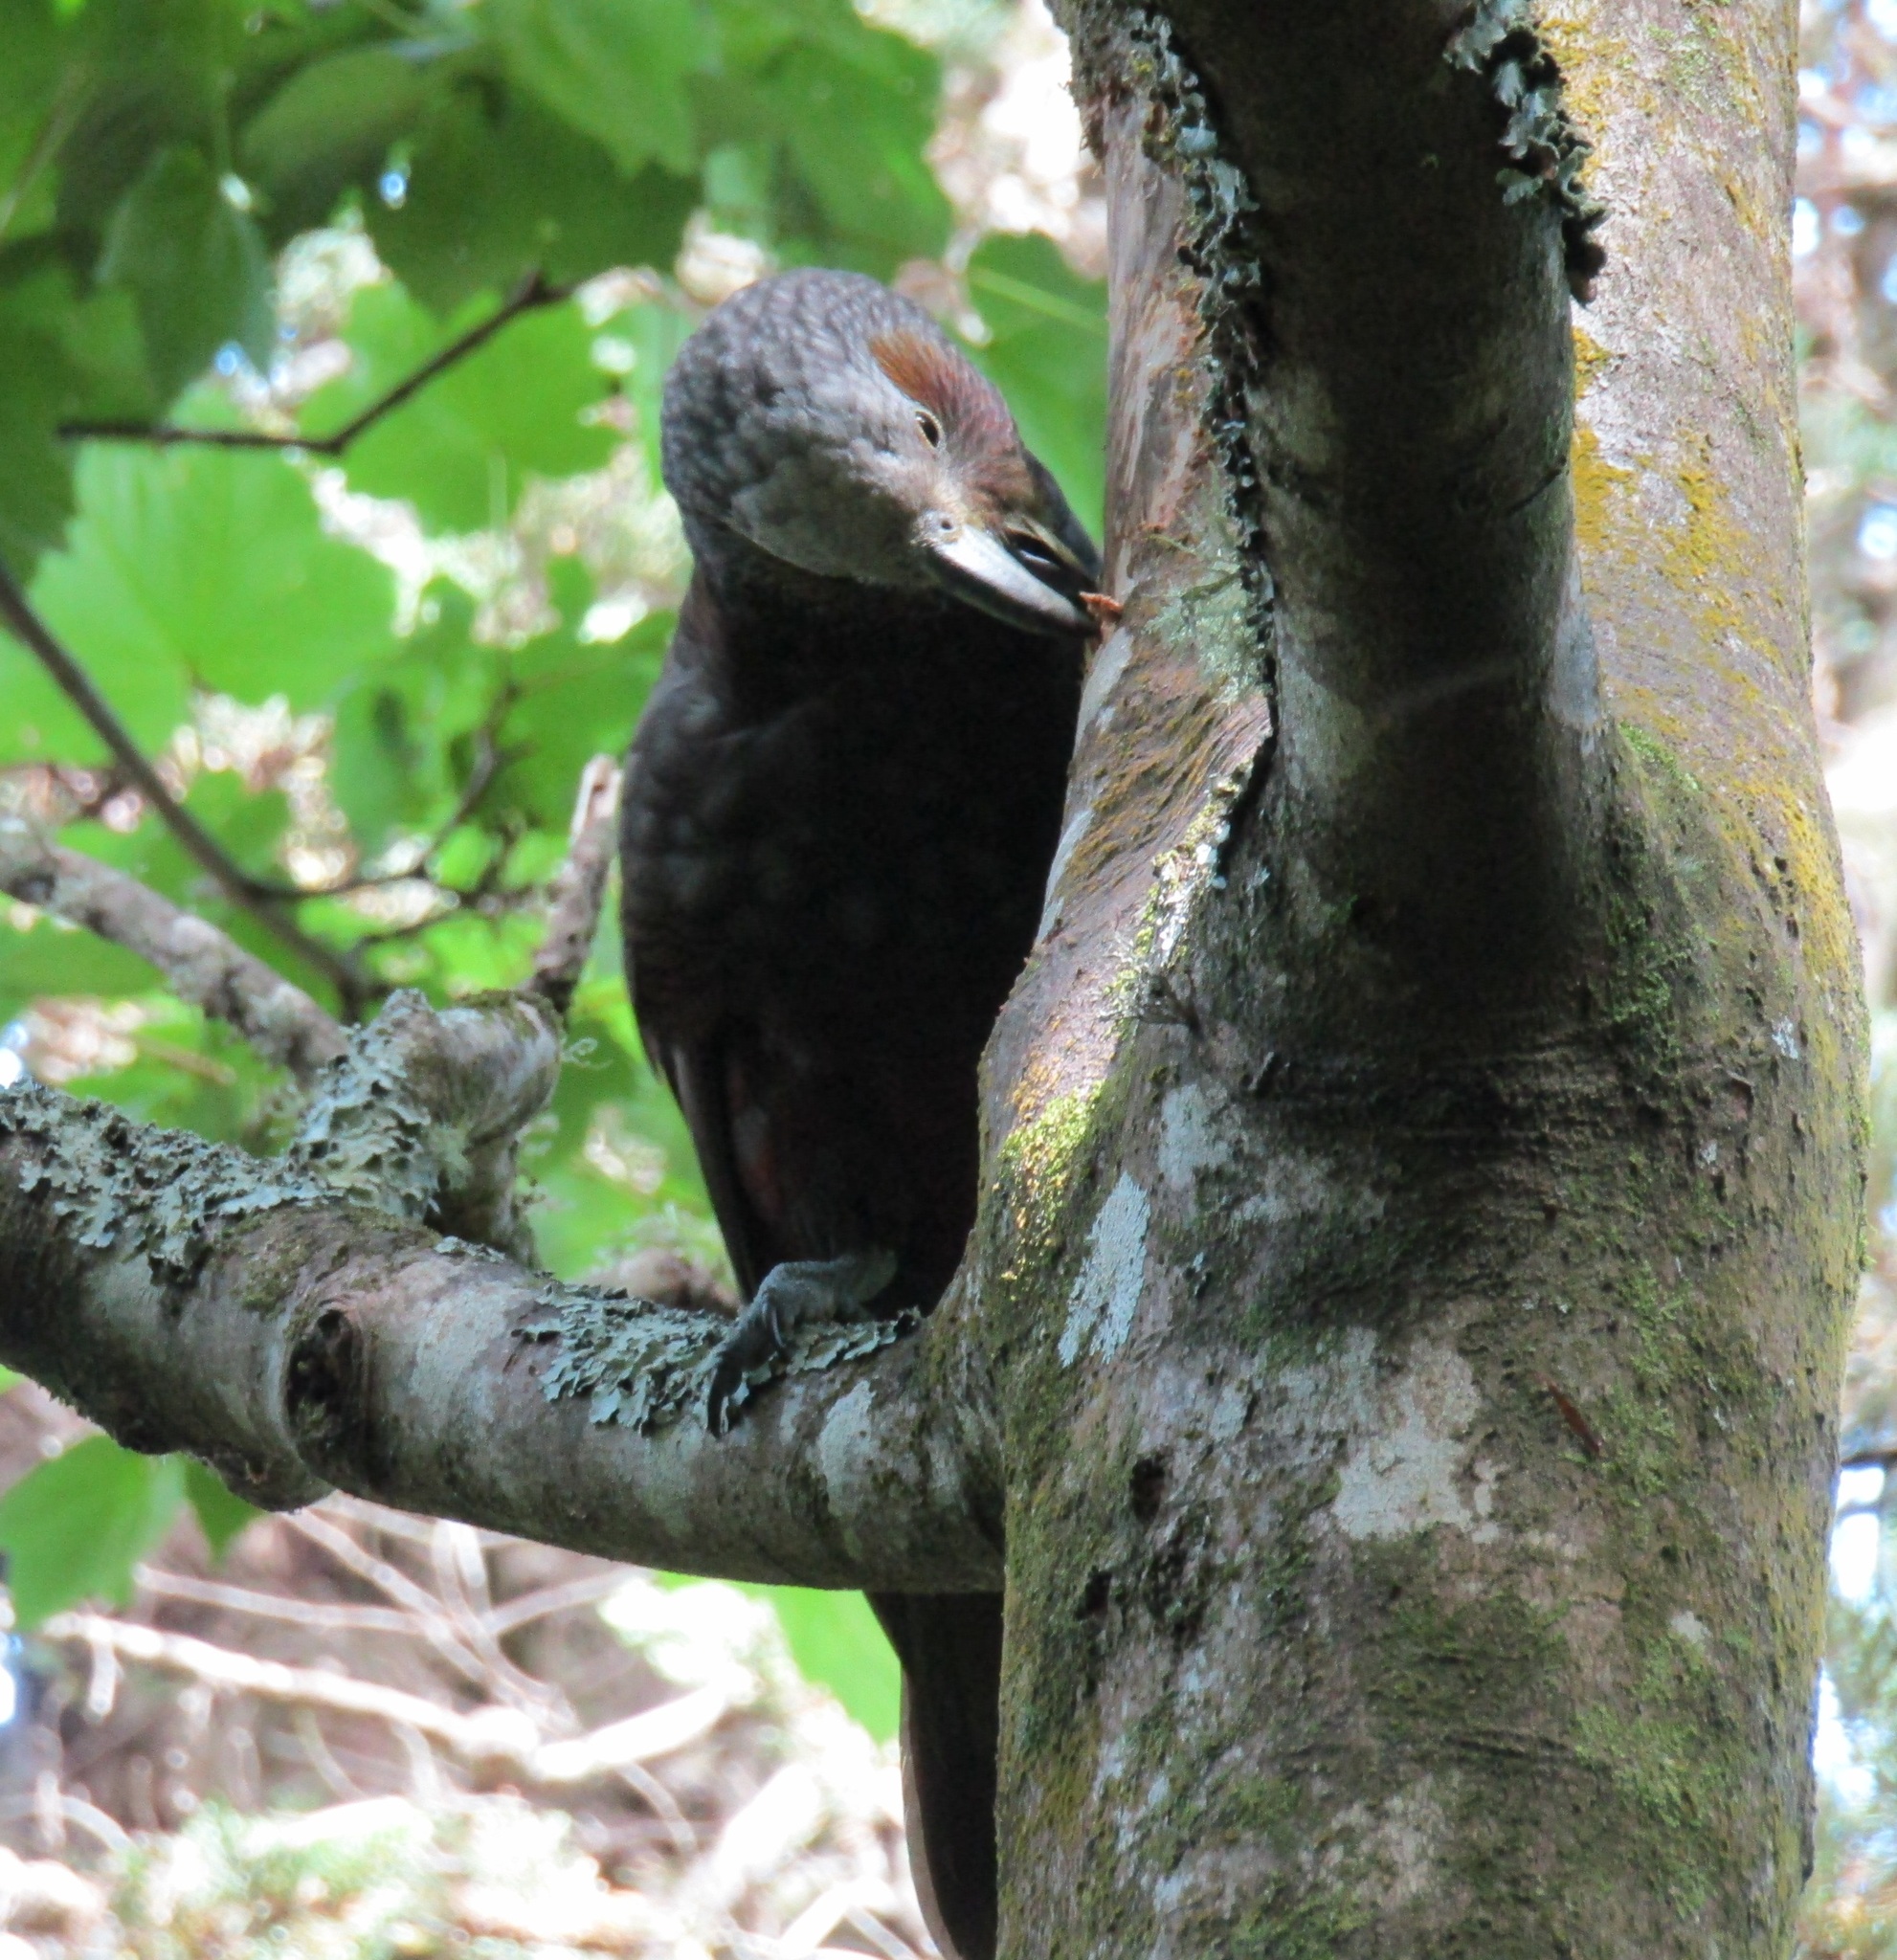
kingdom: Animalia
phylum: Chordata
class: Aves
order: Psittaciformes
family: Psittacidae
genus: Nestor
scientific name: Nestor meridionalis
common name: New zealand kaka
